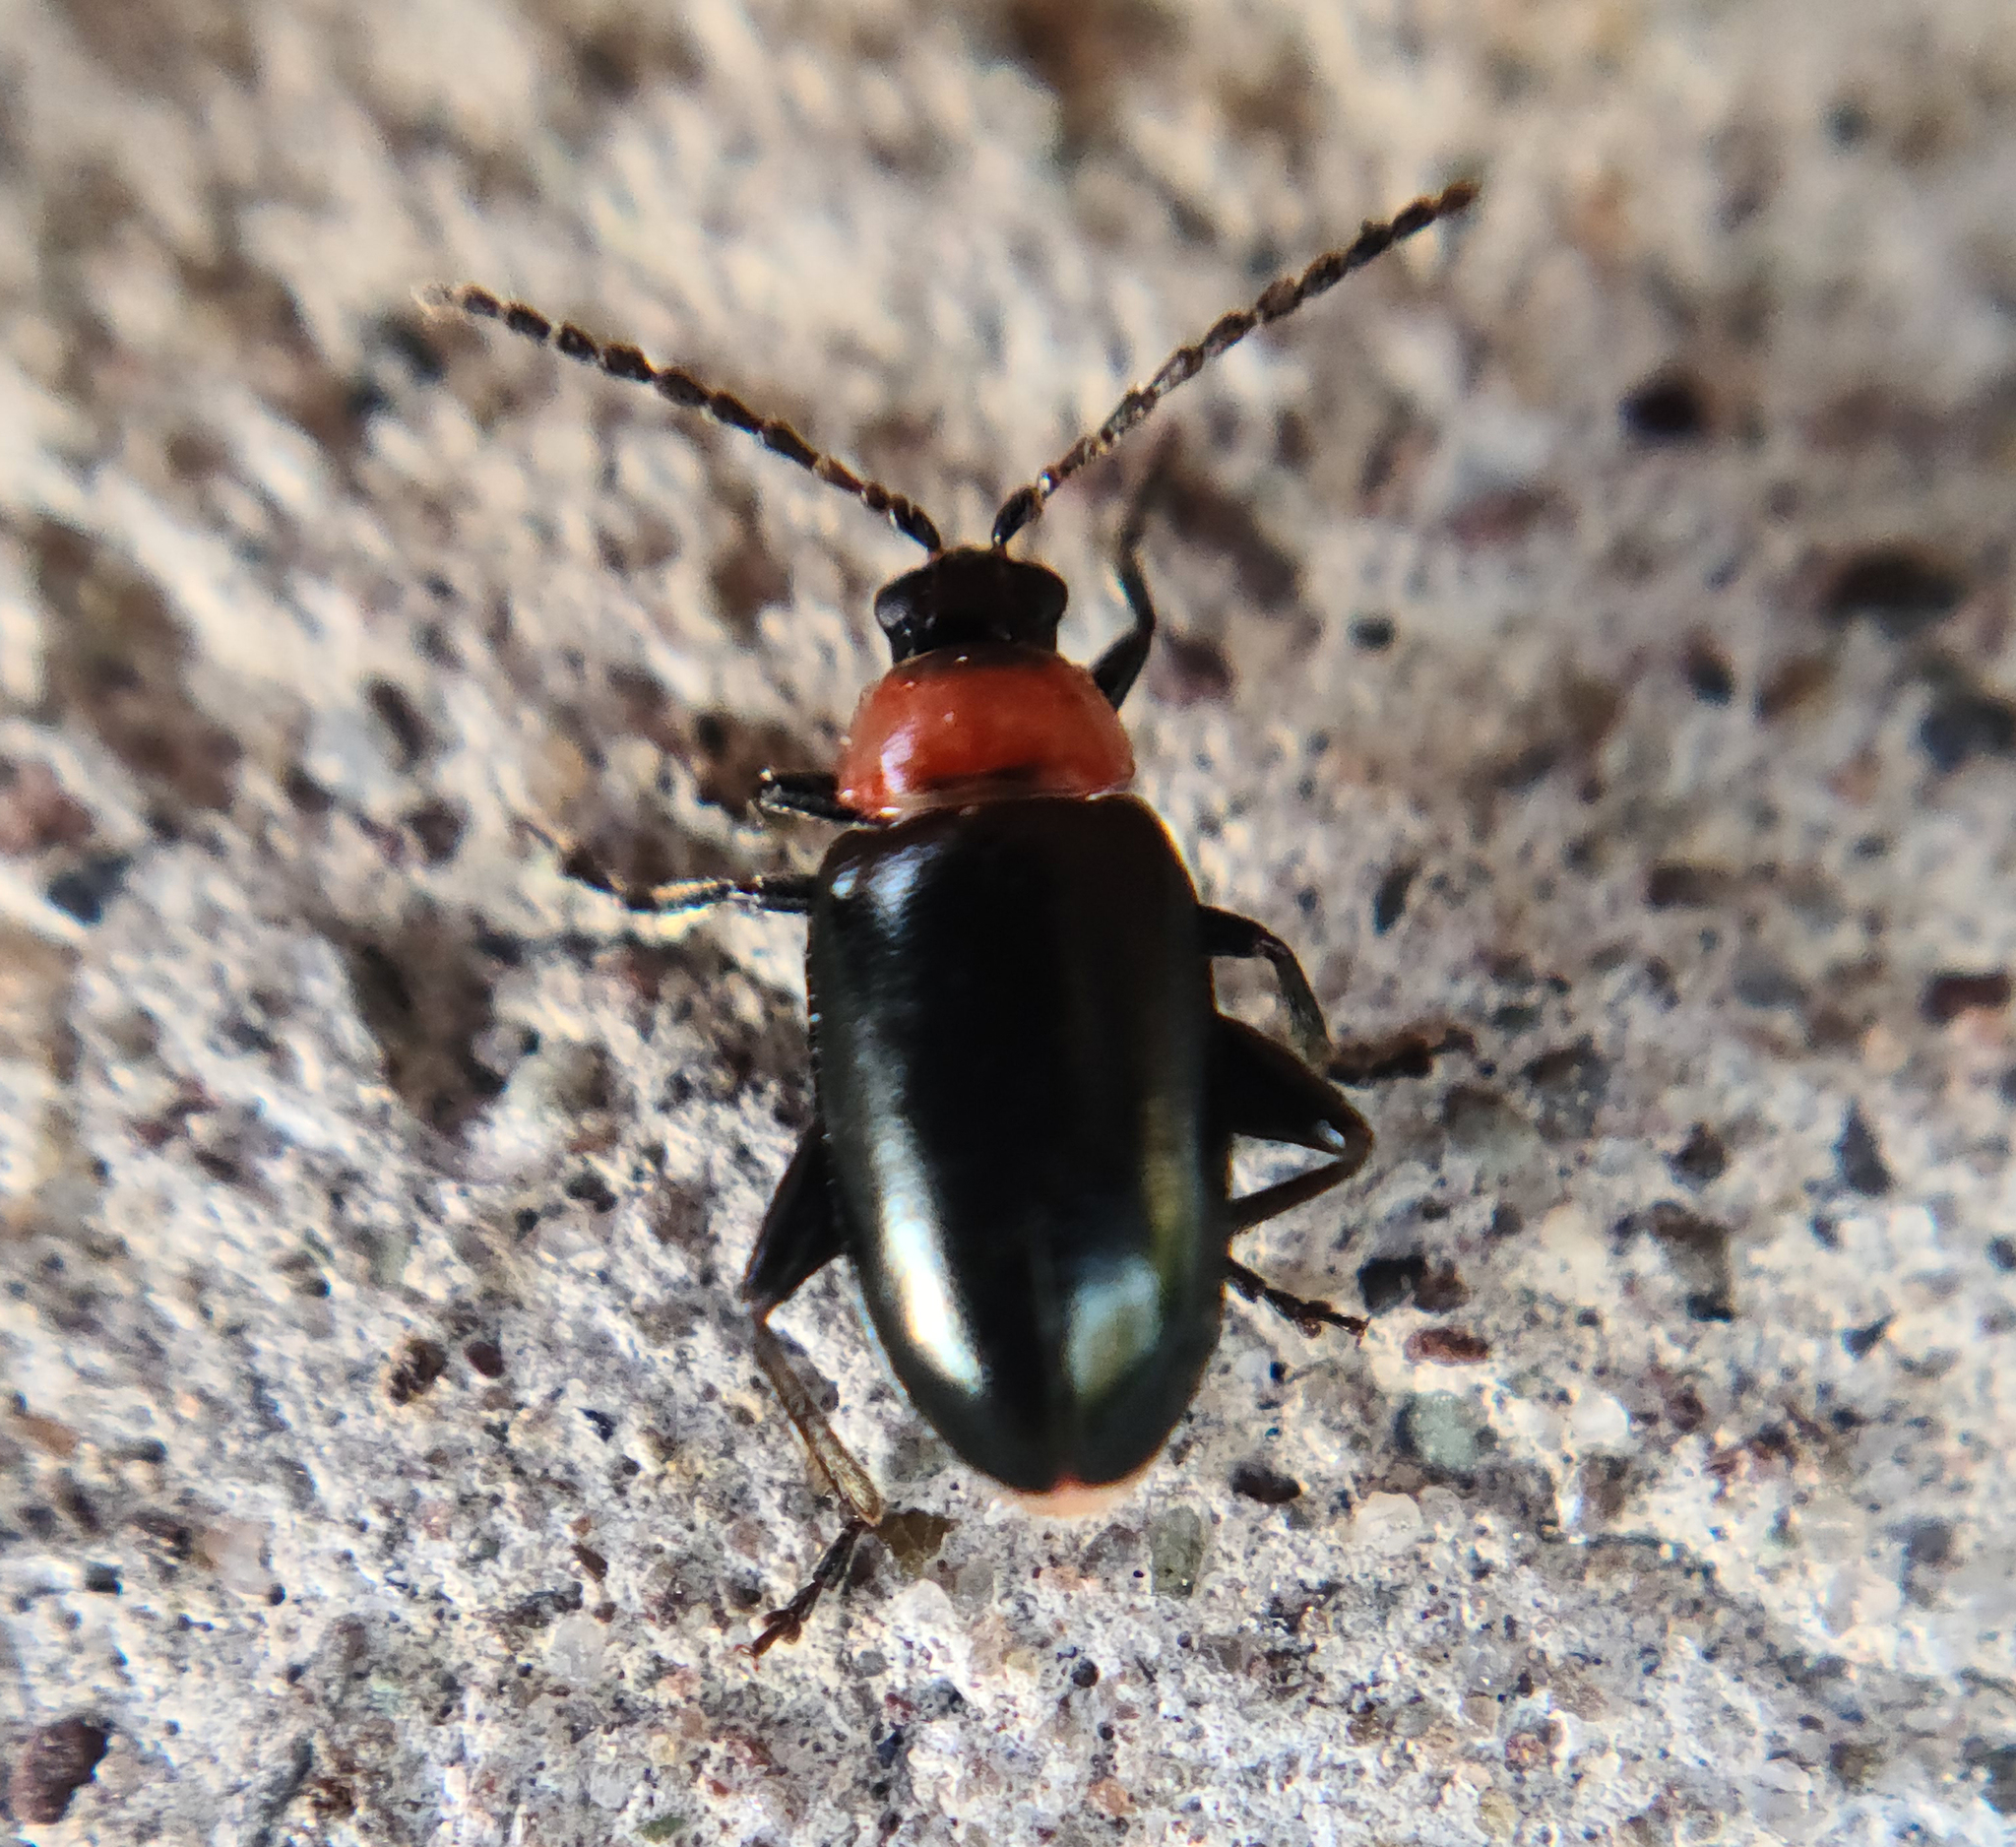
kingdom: Animalia
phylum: Arthropoda
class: Insecta
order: Coleoptera
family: Chrysomelidae
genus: Disonycha
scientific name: Disonycha xanthomelas
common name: Spinach flea beetle
